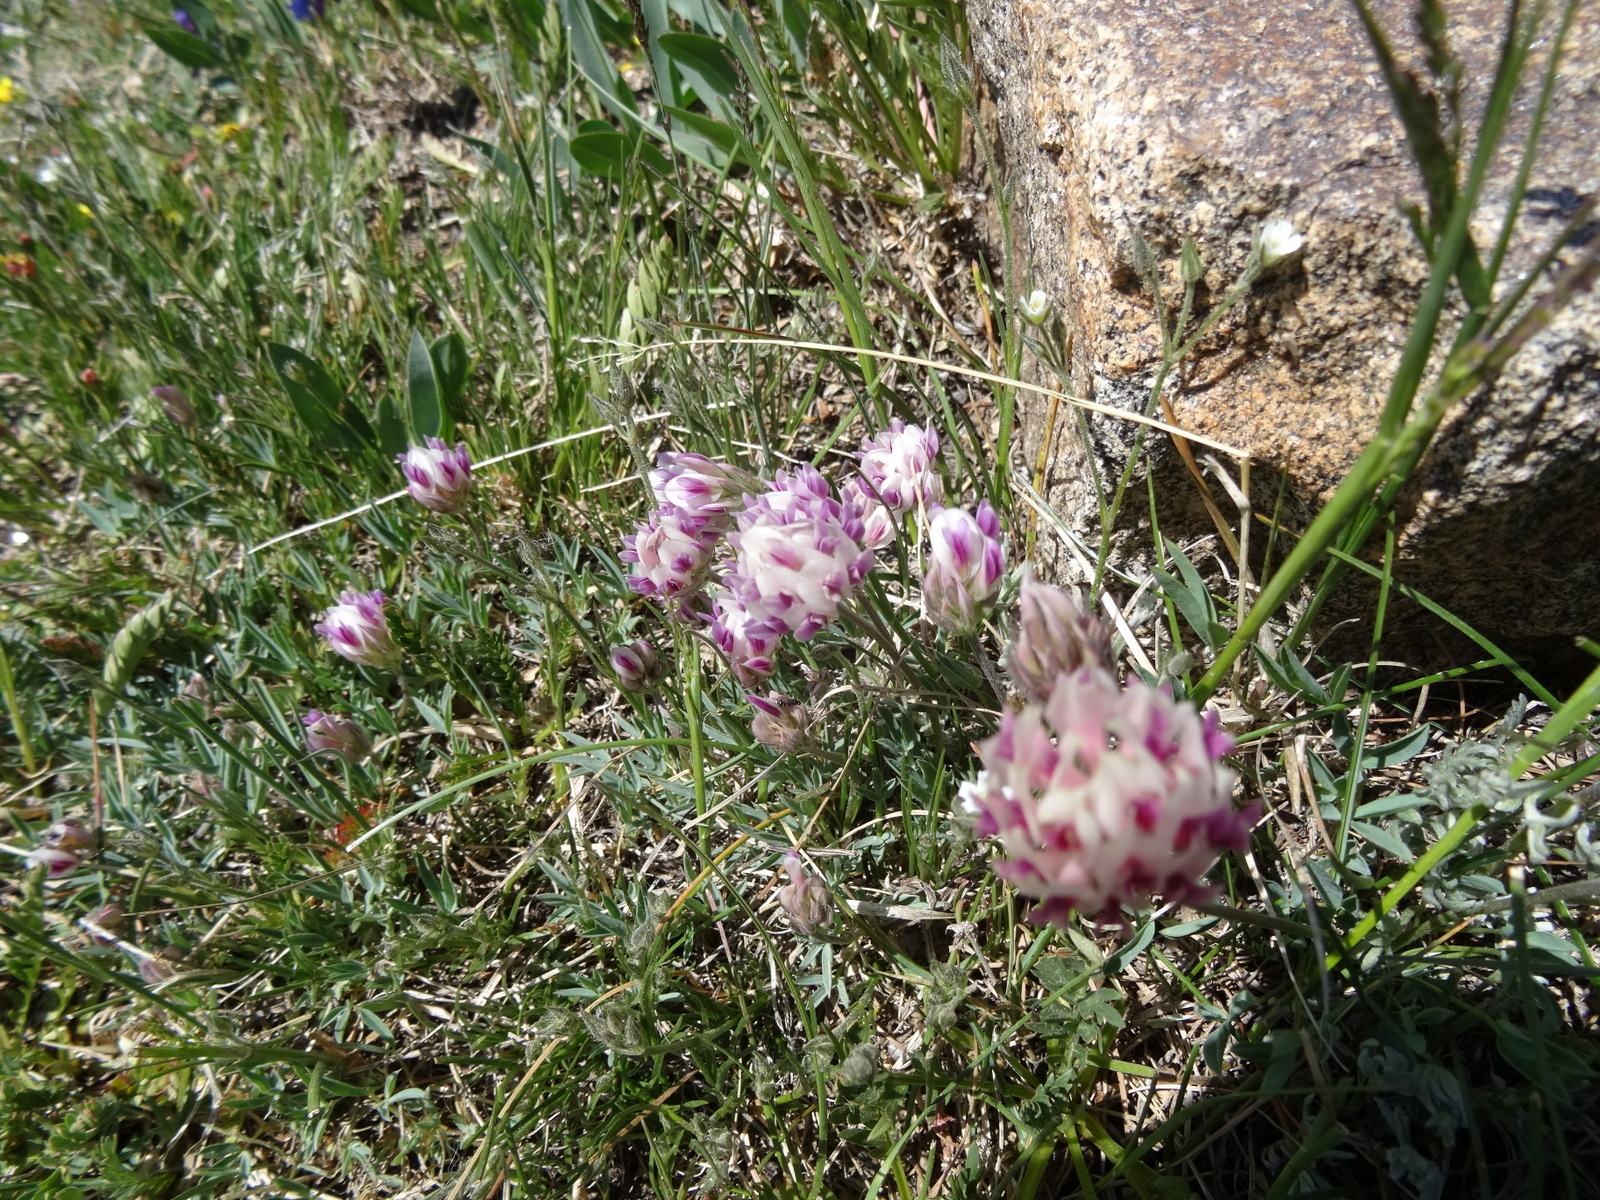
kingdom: Plantae
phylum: Tracheophyta
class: Magnoliopsida
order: Fabales
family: Fabaceae
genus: Trifolium
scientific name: Trifolium dasyphyllum
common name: Whip-root clover
